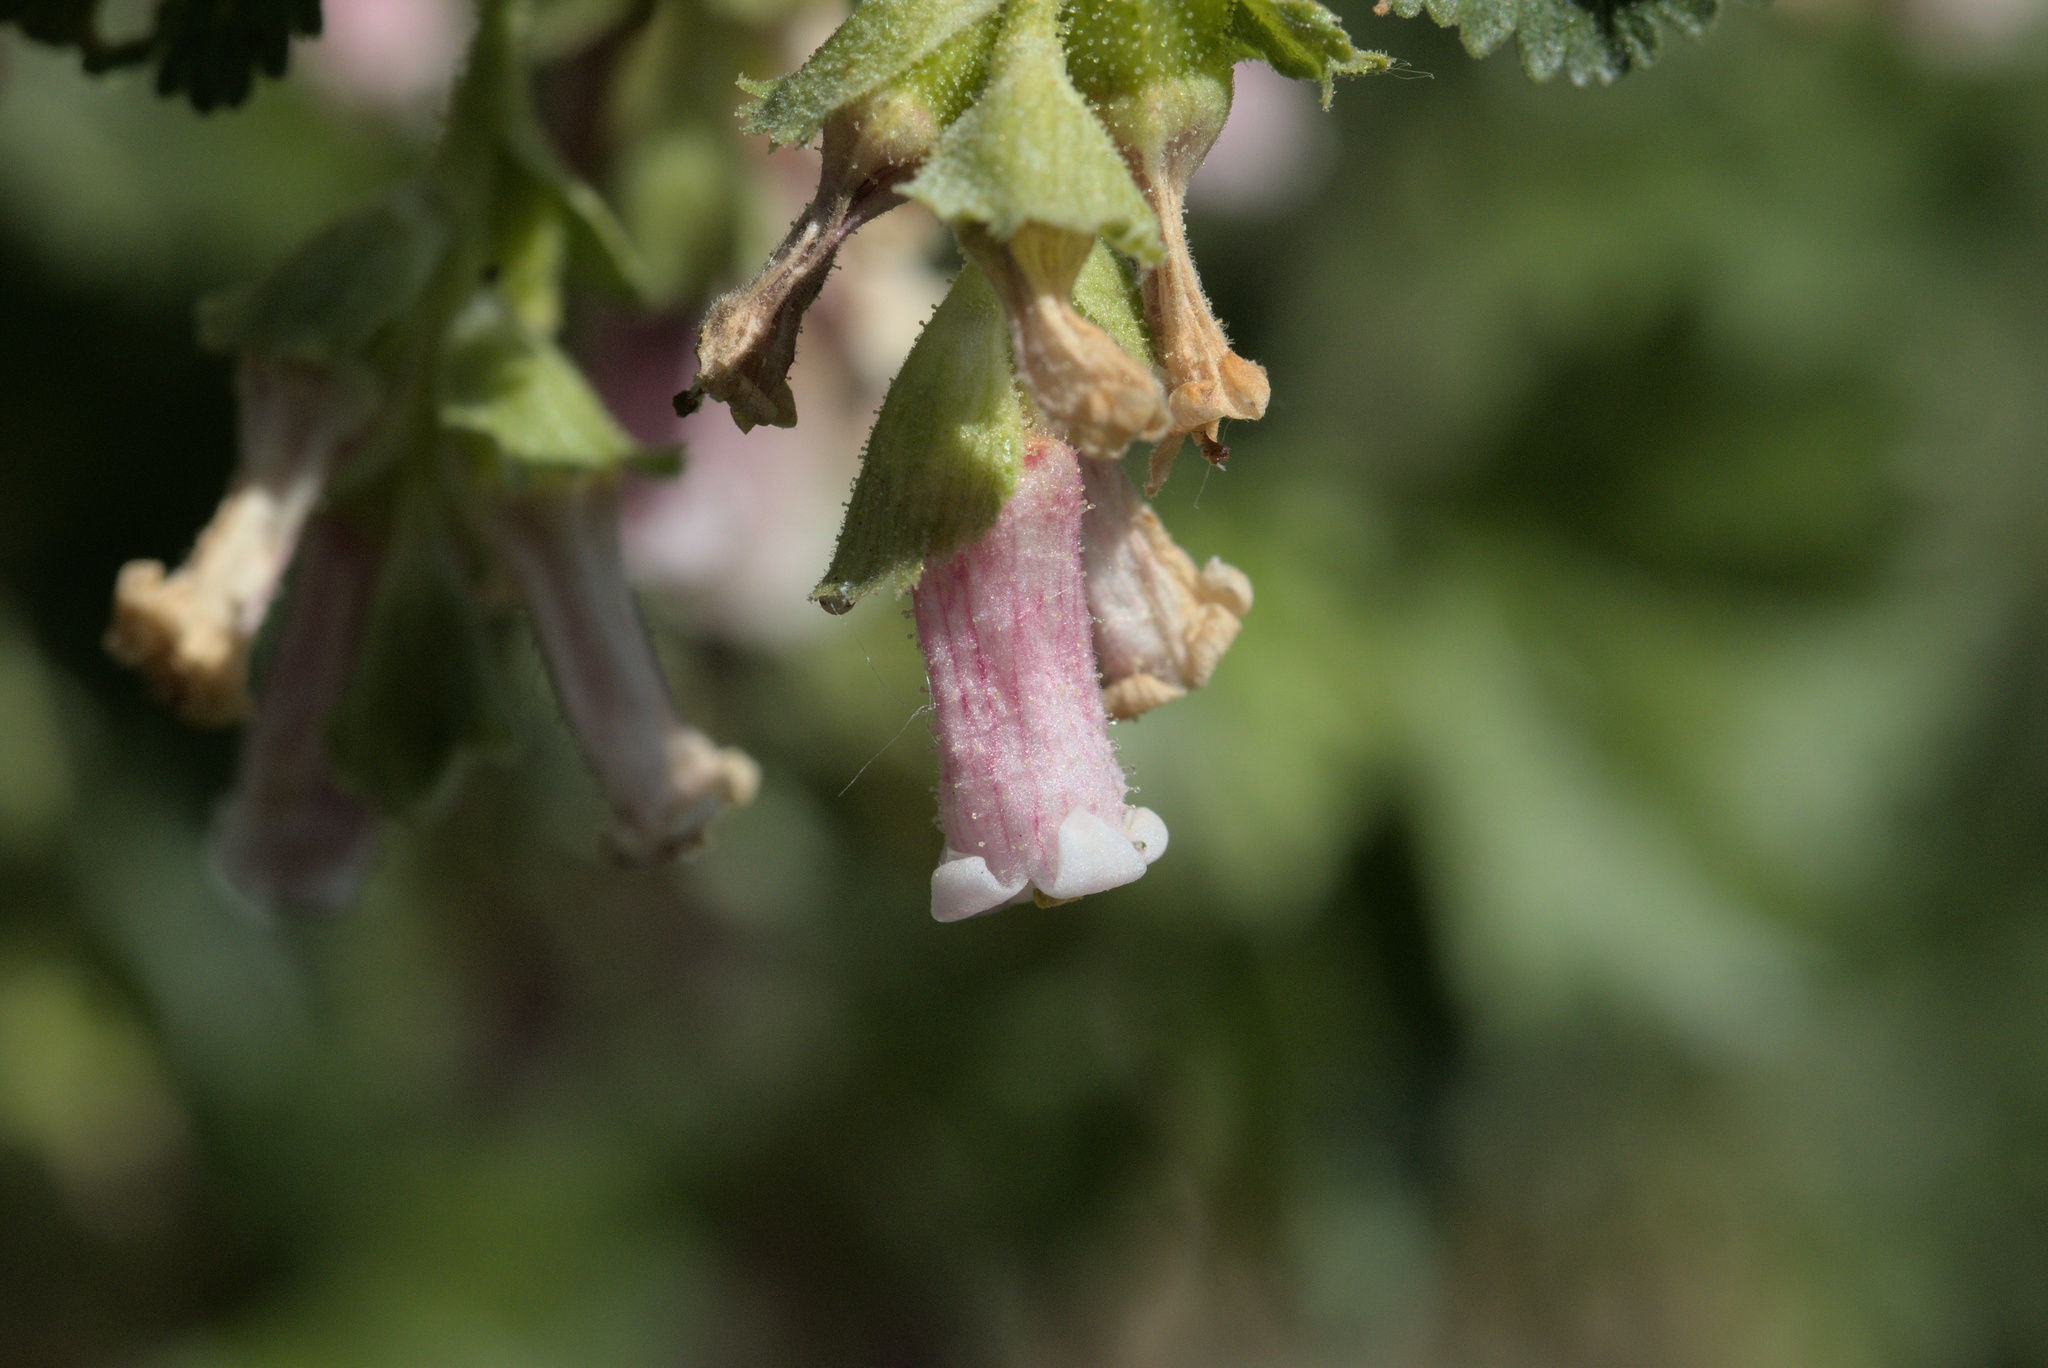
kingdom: Plantae
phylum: Tracheophyta
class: Magnoliopsida
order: Saxifragales
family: Grossulariaceae
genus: Ribes
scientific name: Ribes cereum
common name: Wax currant
